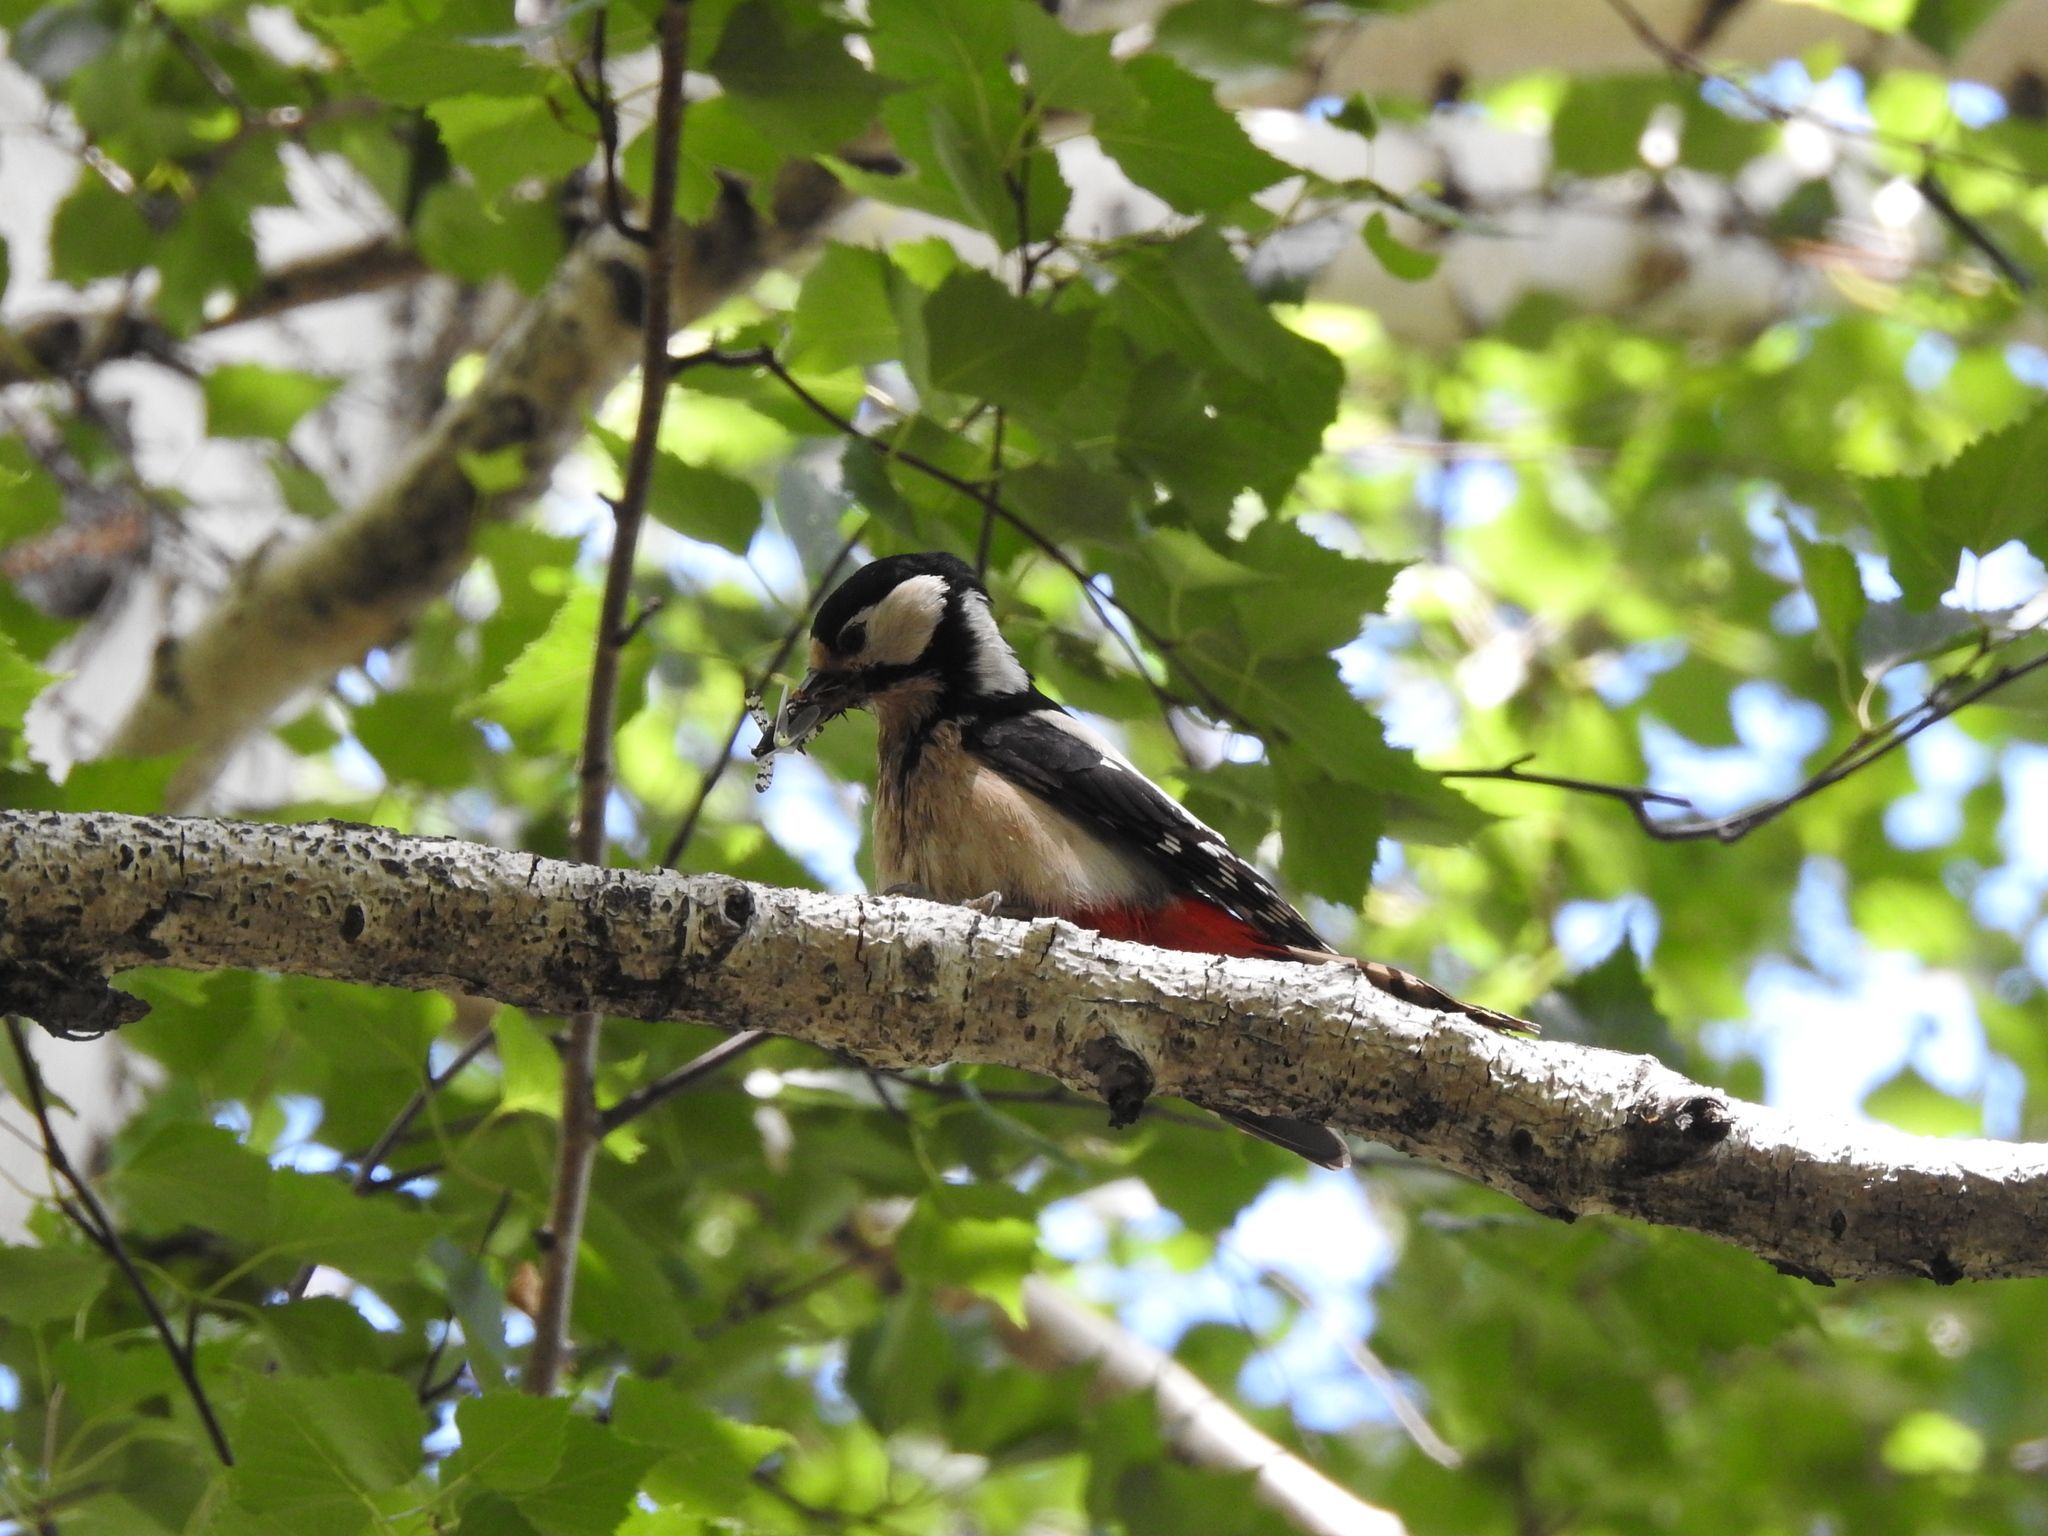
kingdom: Animalia
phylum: Chordata
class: Aves
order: Piciformes
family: Picidae
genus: Dendrocopos
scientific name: Dendrocopos major
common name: Great spotted woodpecker
